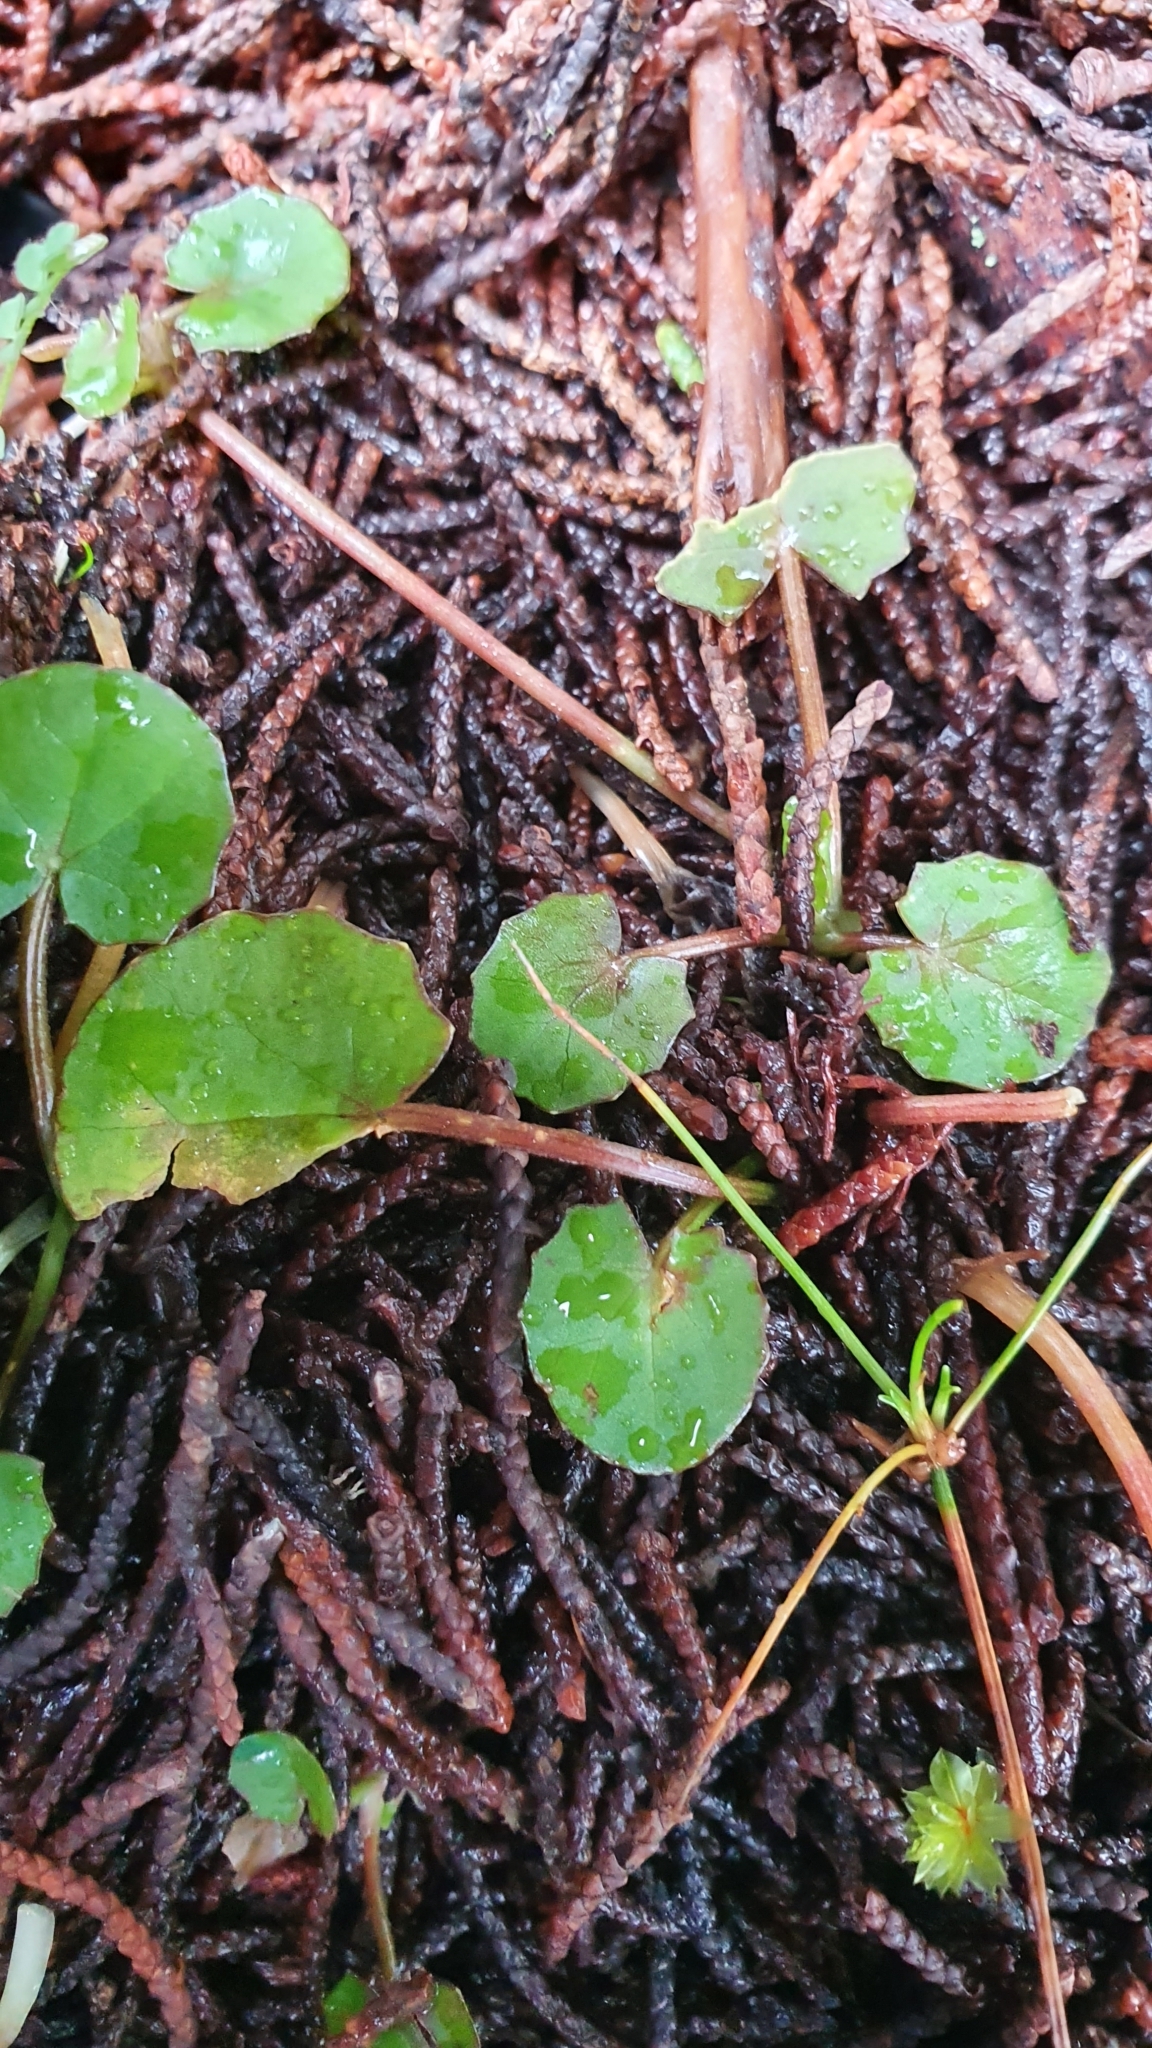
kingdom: Plantae
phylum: Tracheophyta
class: Magnoliopsida
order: Apiales
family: Apiaceae
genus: Centella
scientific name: Centella uniflora
